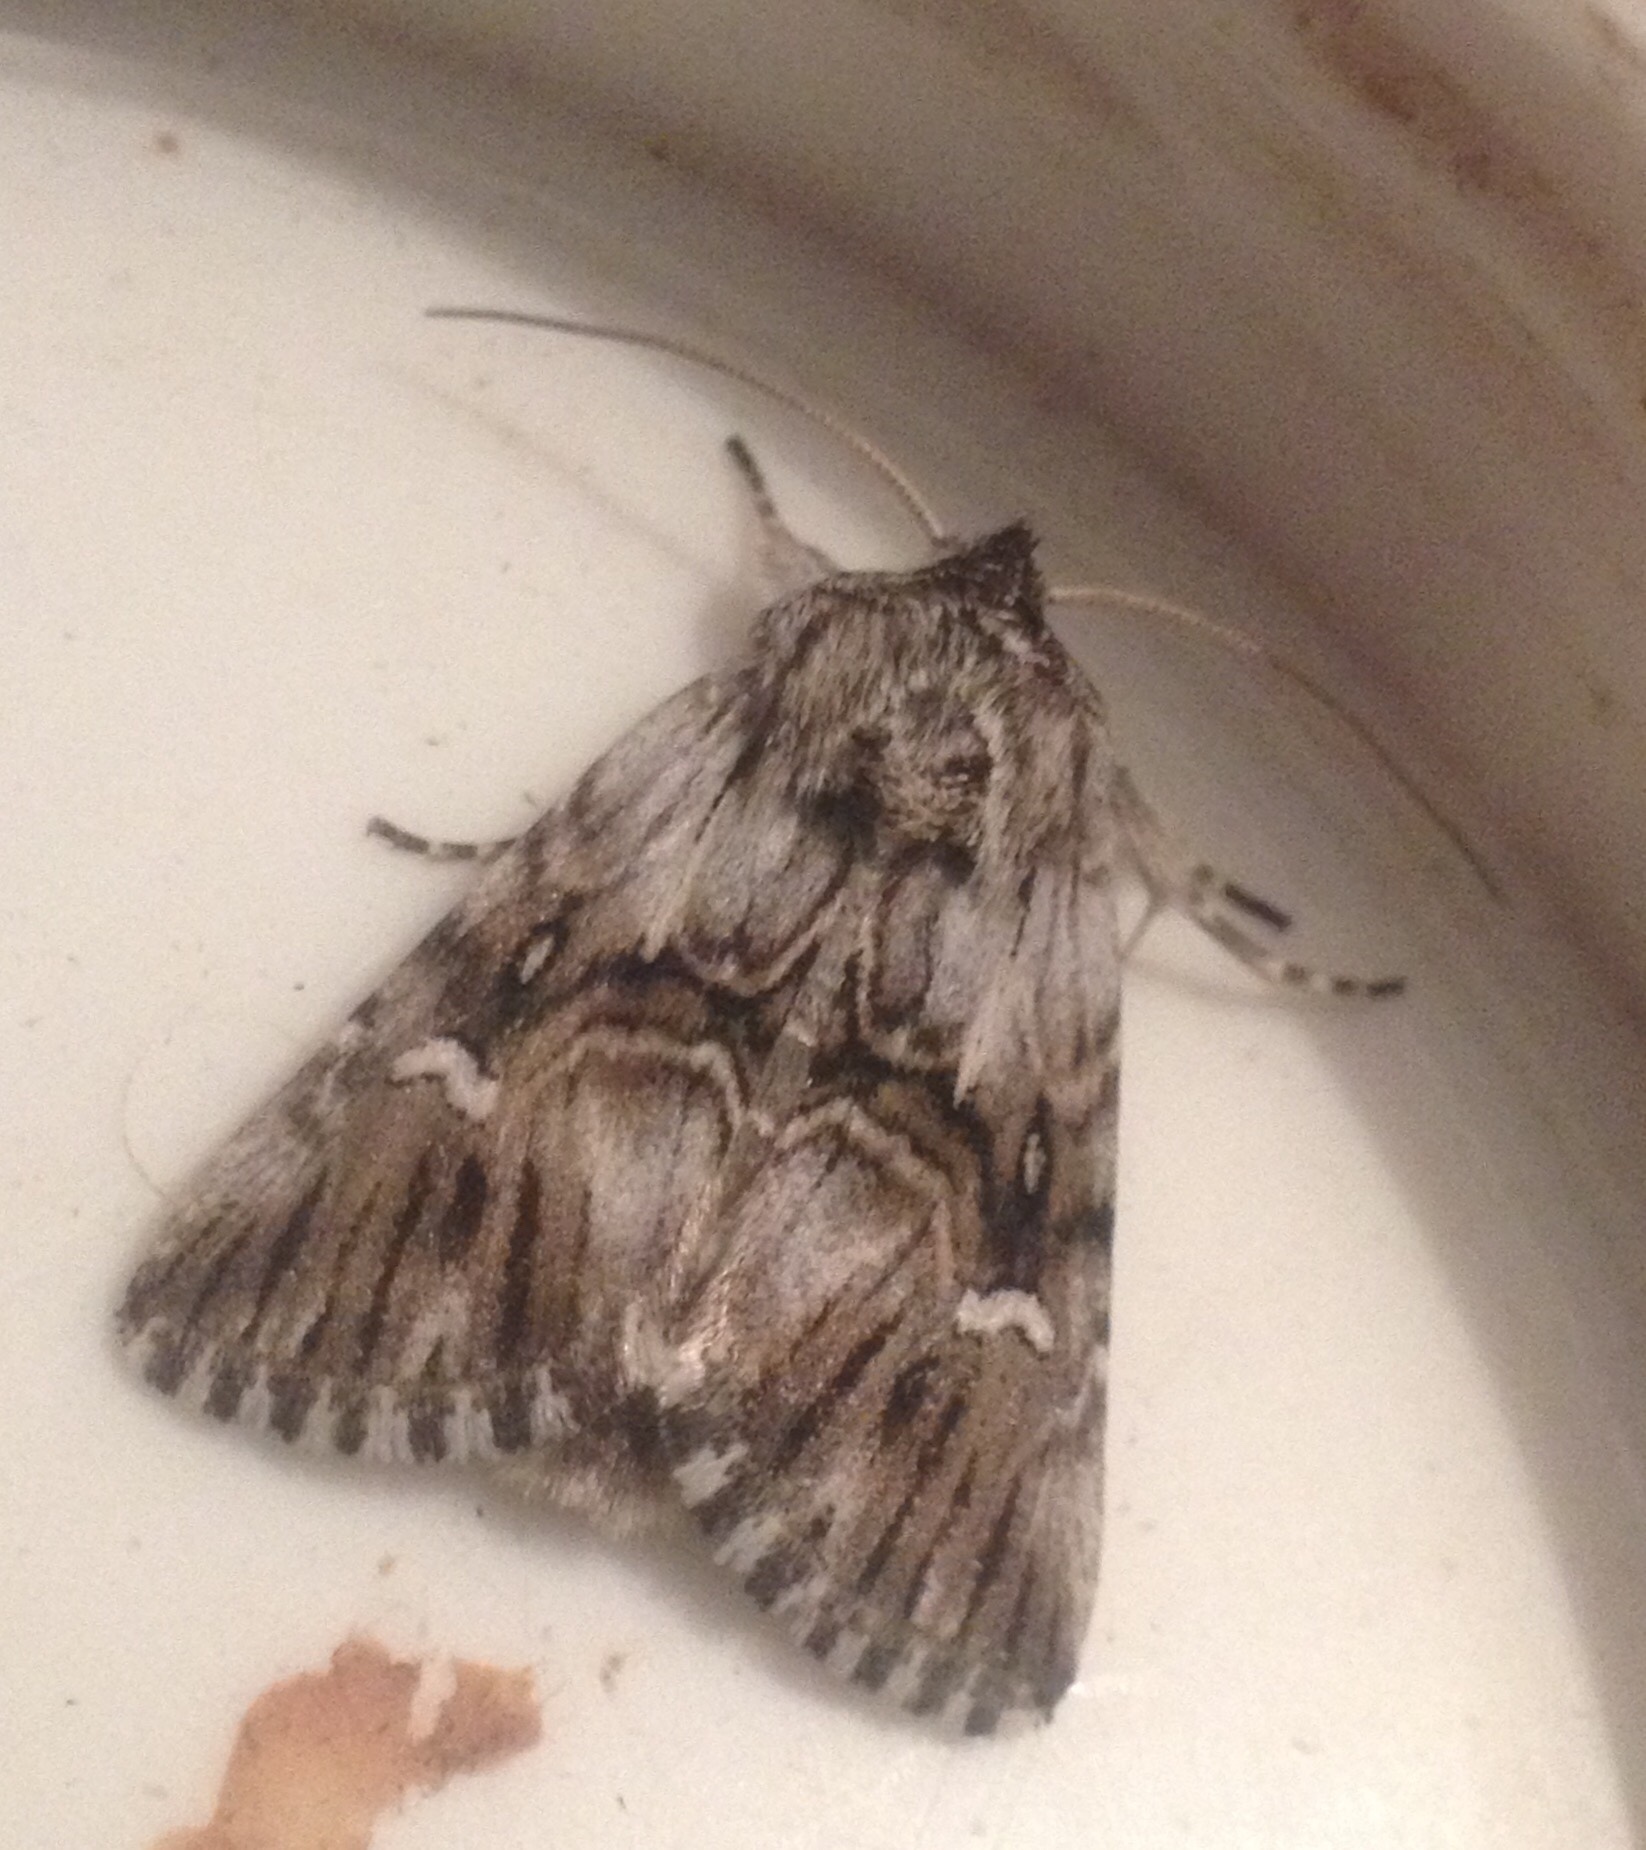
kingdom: Animalia
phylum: Arthropoda
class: Insecta
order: Lepidoptera
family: Noctuidae
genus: Calophasia
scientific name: Calophasia lunula
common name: Toadflax brocade
